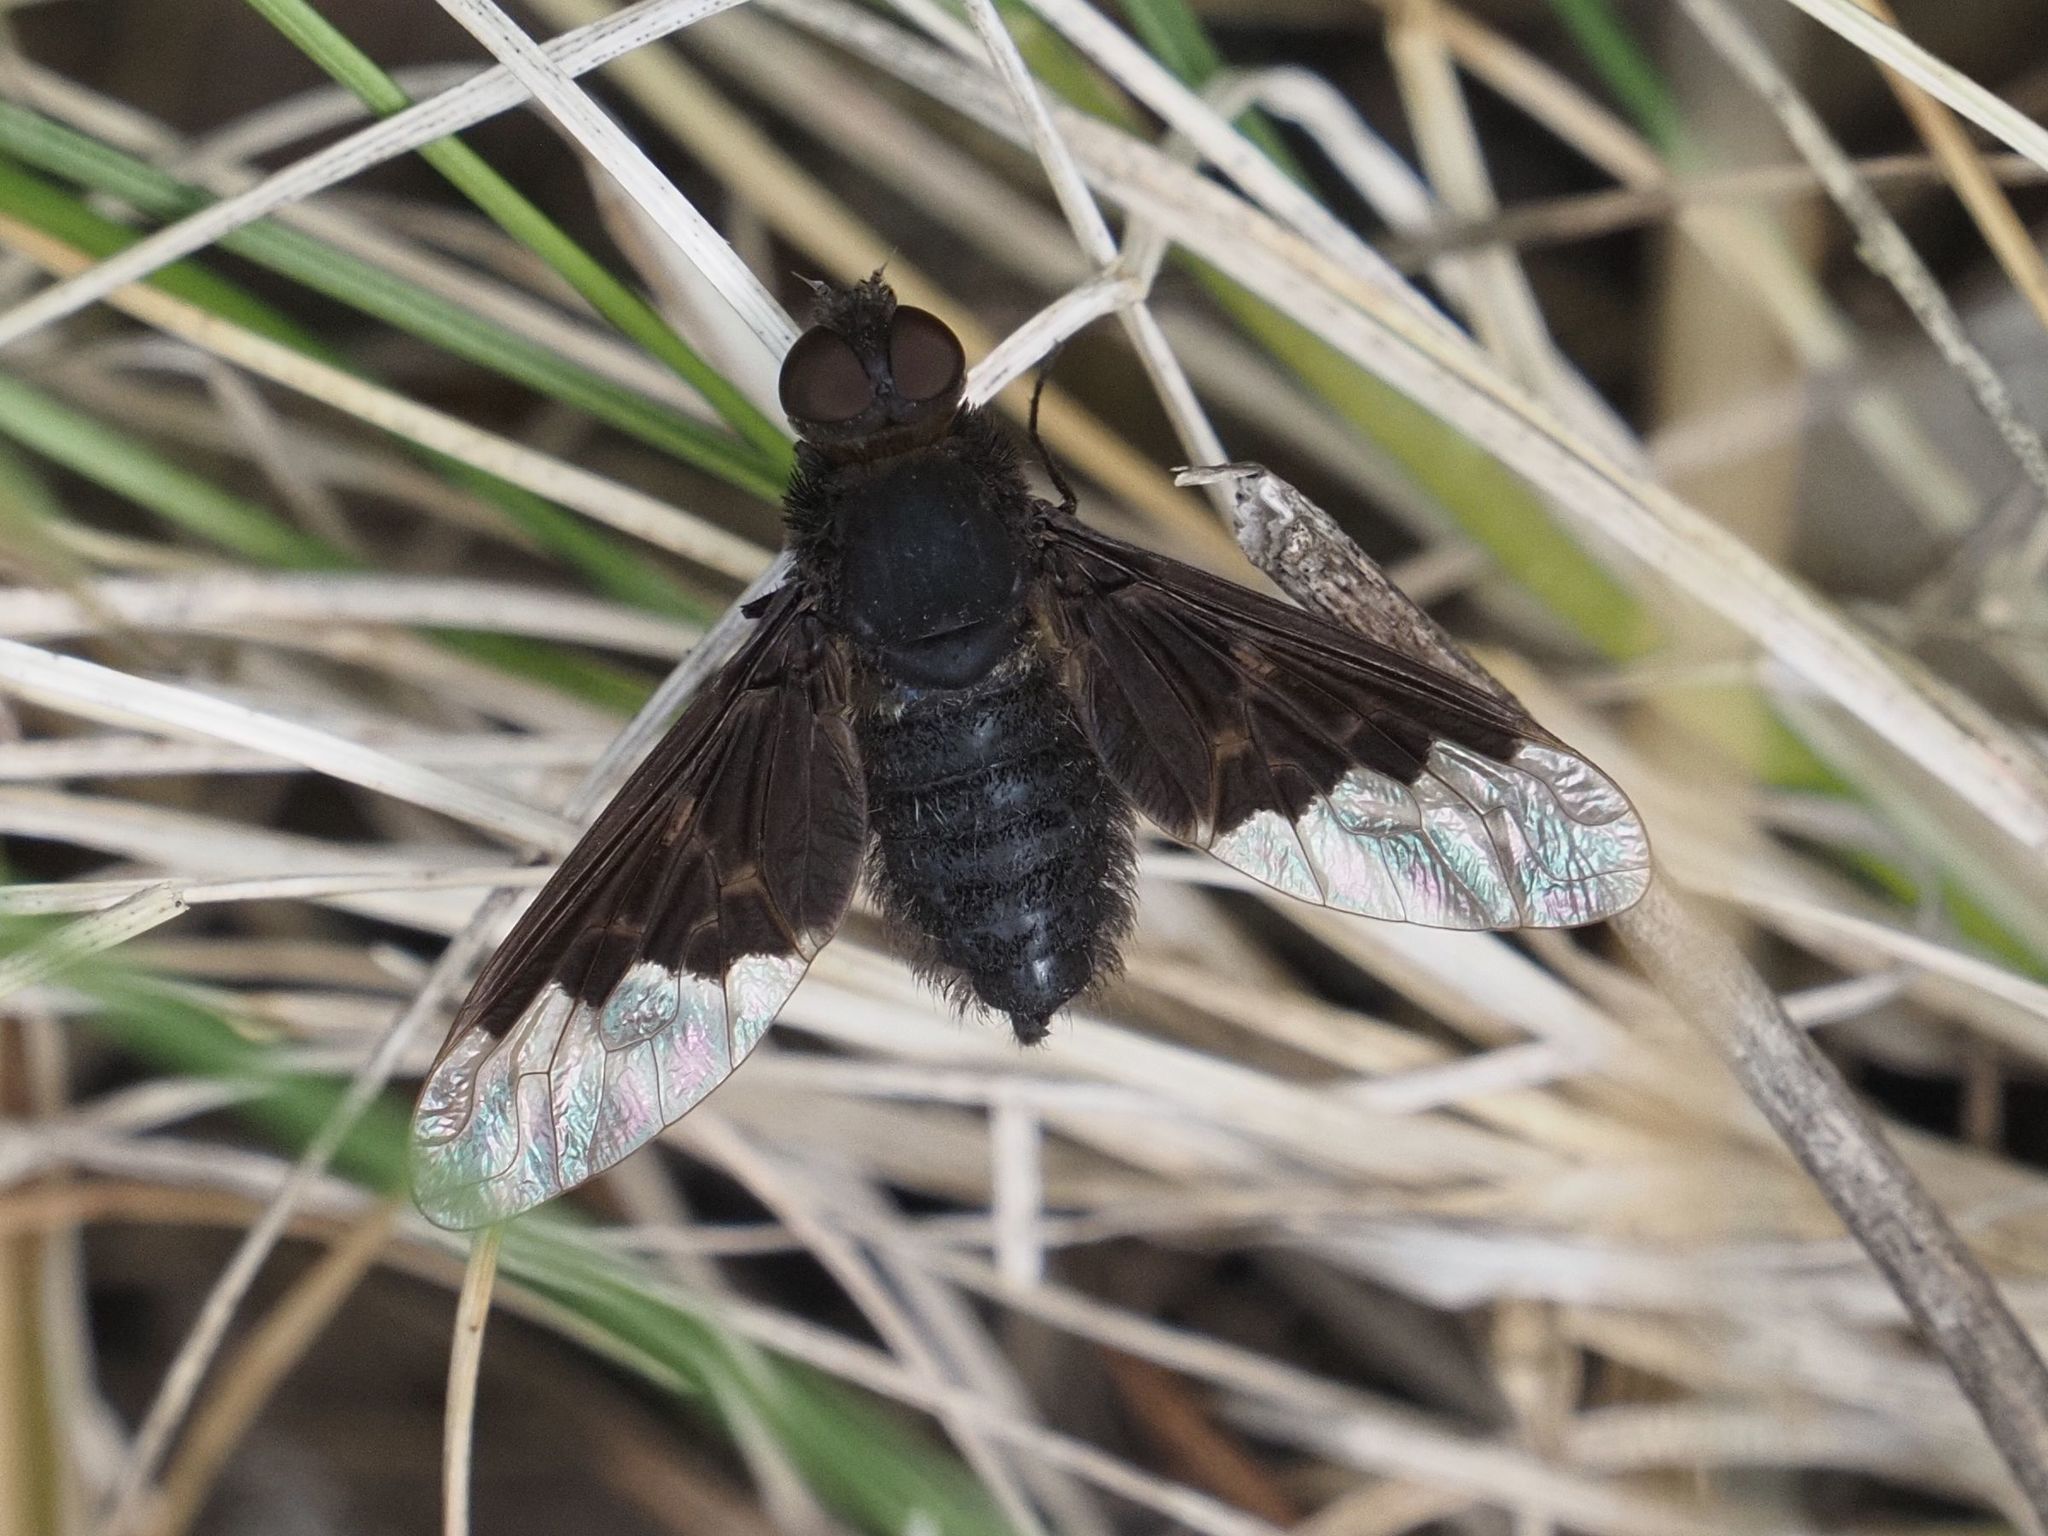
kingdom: Animalia
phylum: Arthropoda
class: Insecta
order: Diptera
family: Bombyliidae
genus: Hemipenthes
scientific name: Hemipenthes morio
